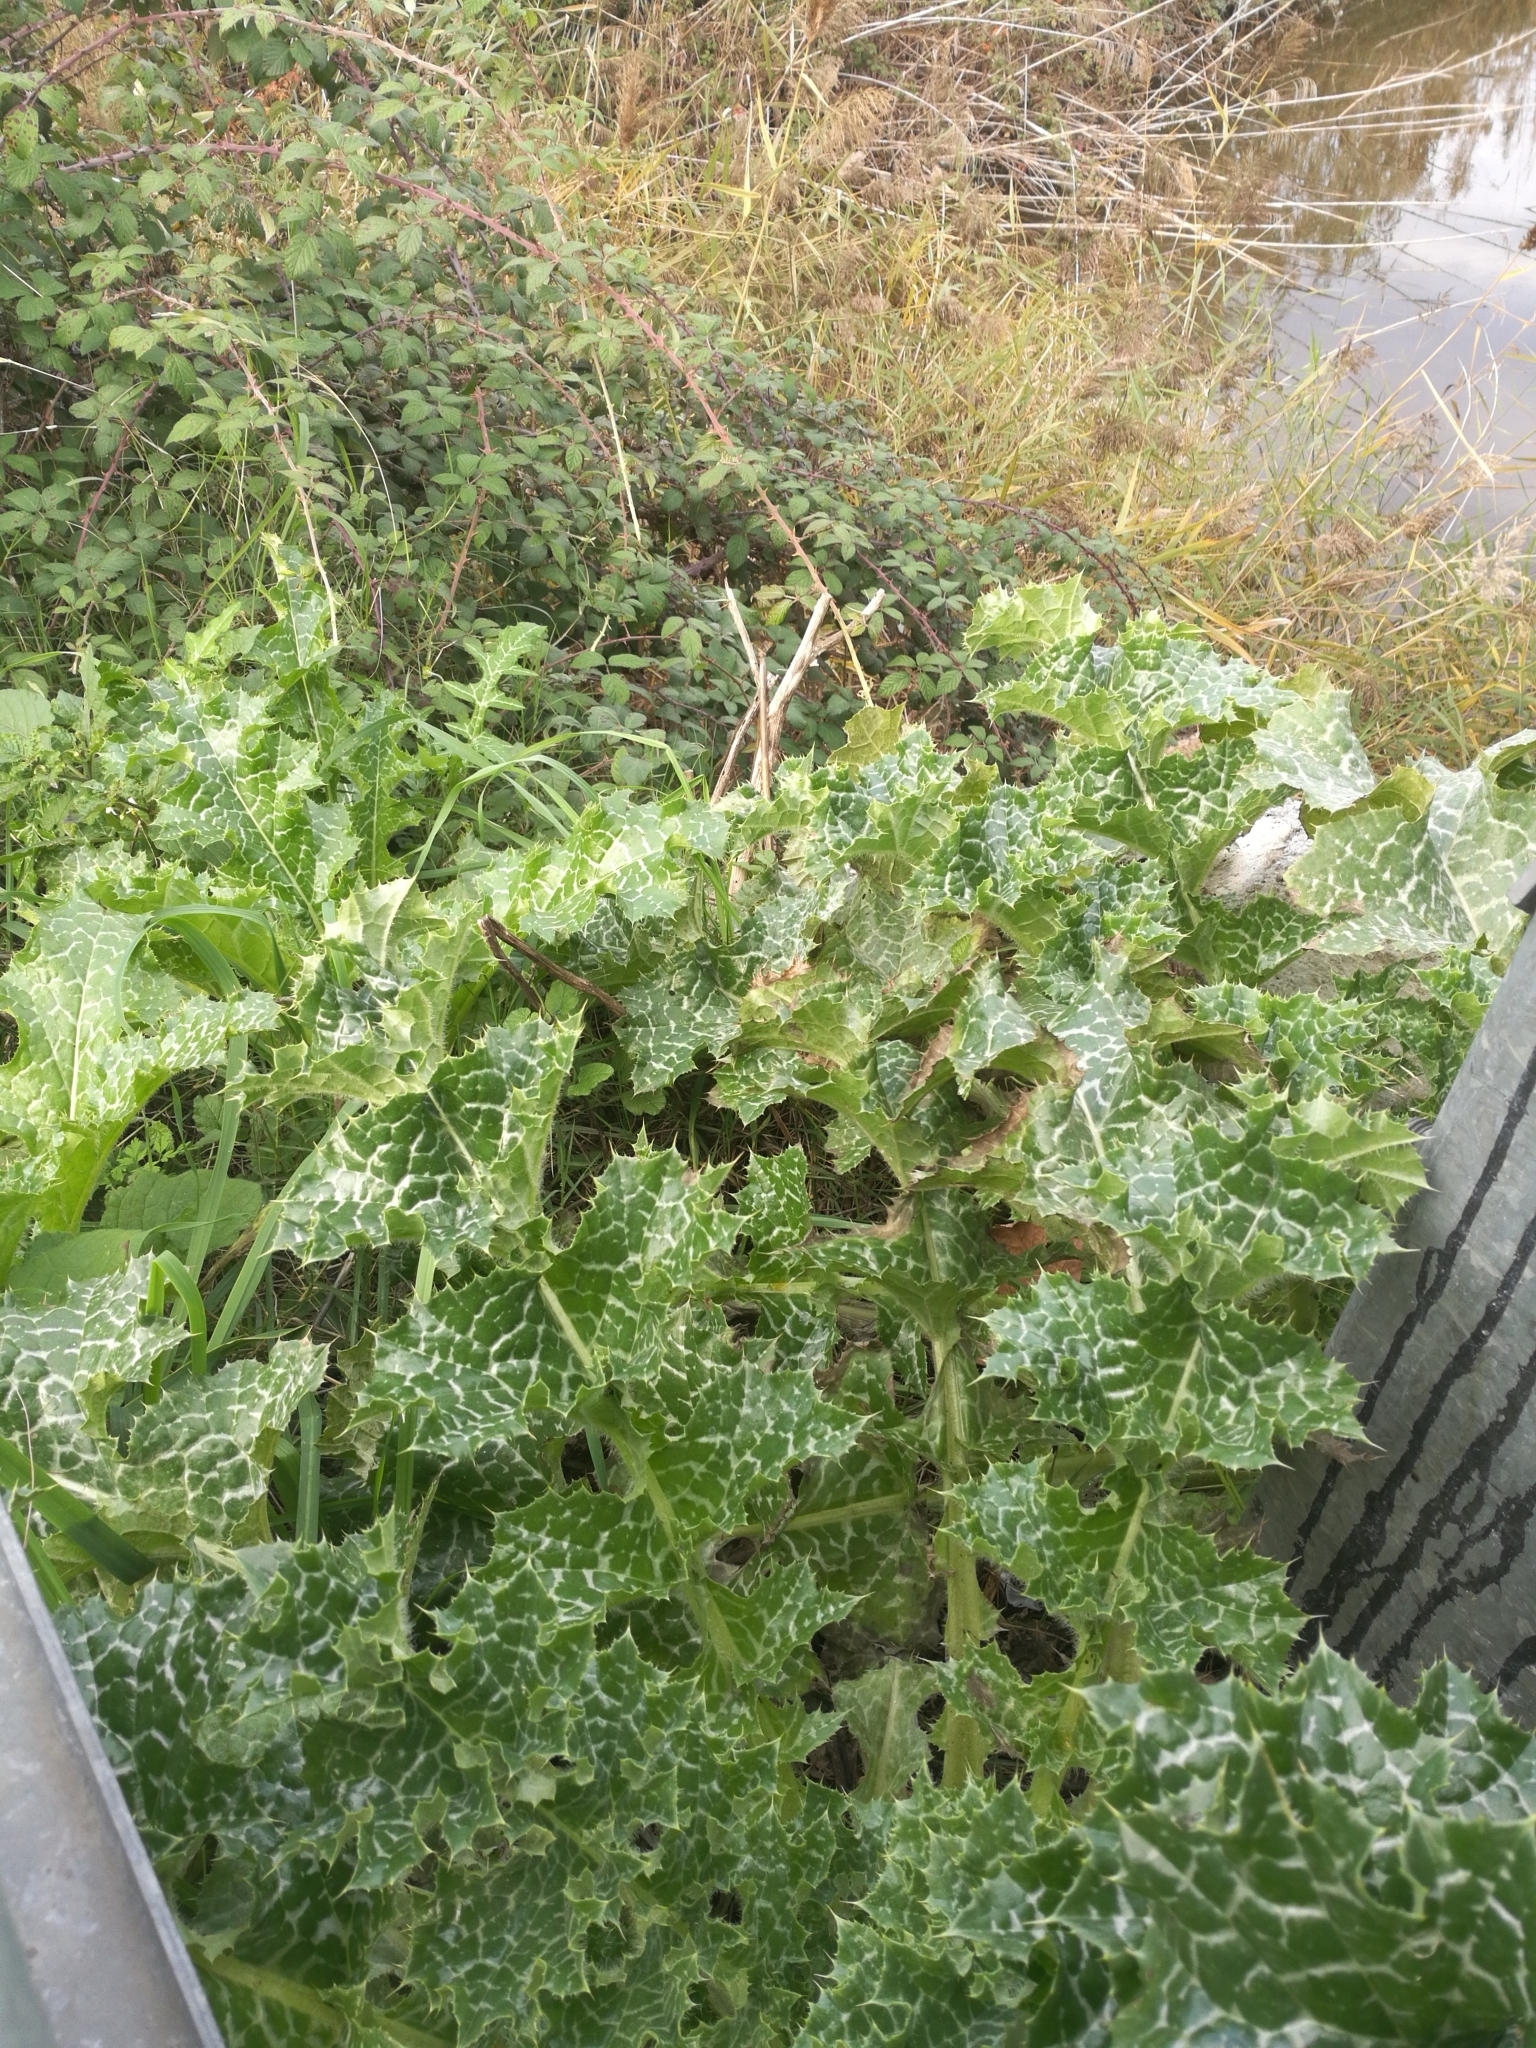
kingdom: Plantae
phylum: Tracheophyta
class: Magnoliopsida
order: Asterales
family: Asteraceae
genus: Silybum
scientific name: Silybum marianum
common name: Milk thistle
